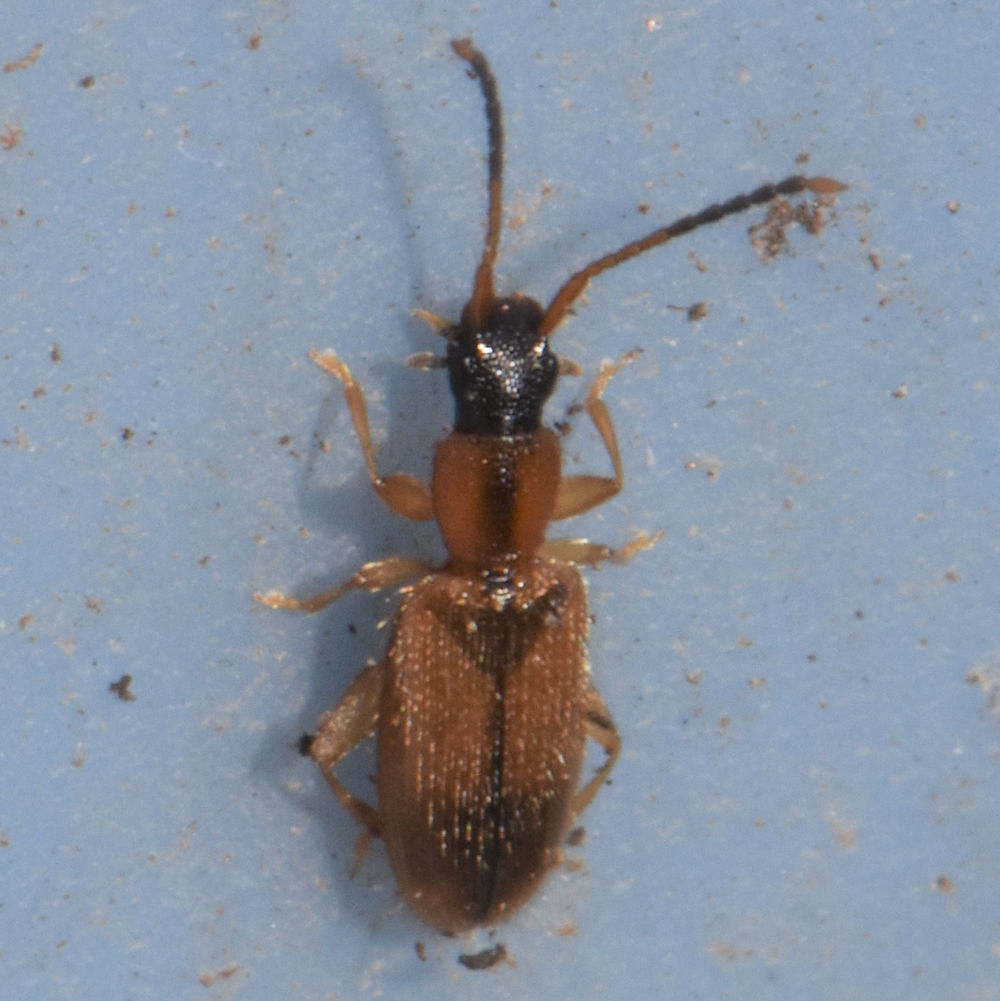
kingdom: Animalia
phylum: Arthropoda
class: Insecta
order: Coleoptera
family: Silvanidae
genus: Telephanus
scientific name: Telephanus velox
